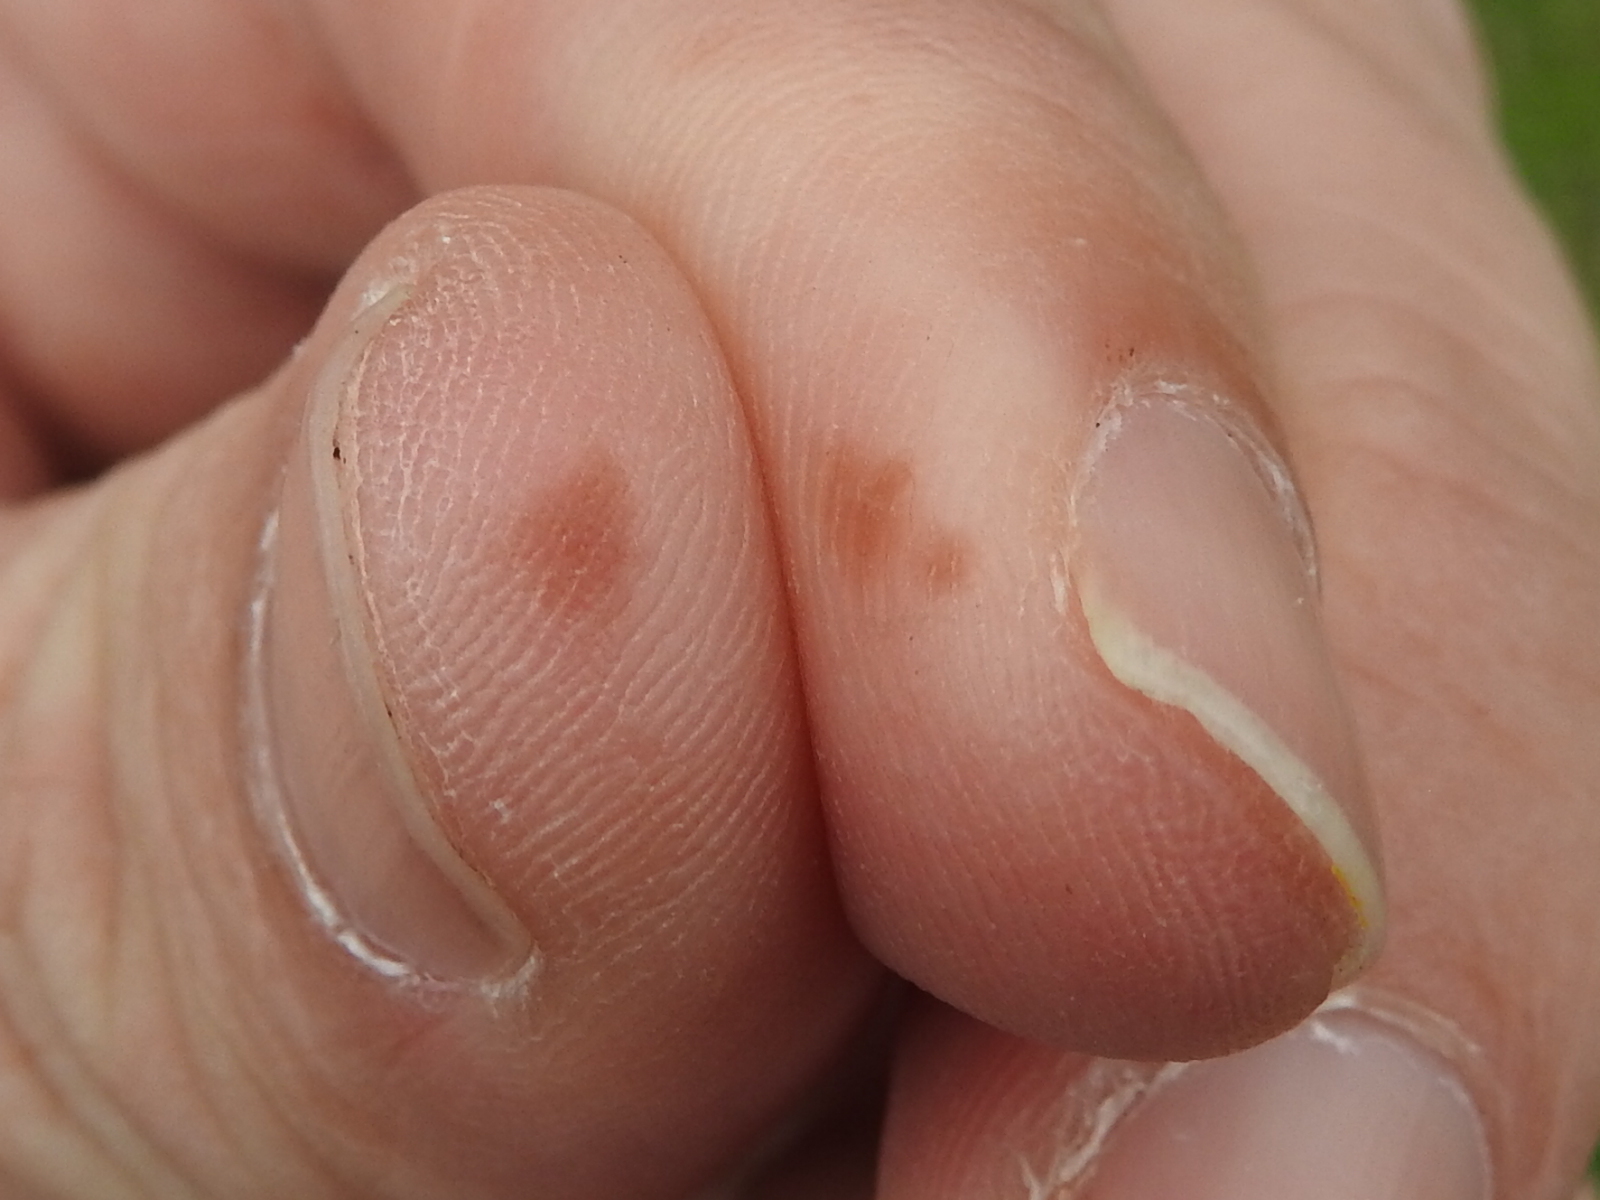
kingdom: Animalia
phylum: Arthropoda
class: Insecta
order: Coleoptera
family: Carabidae
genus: Brachinus
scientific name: Brachinus adustipennis
